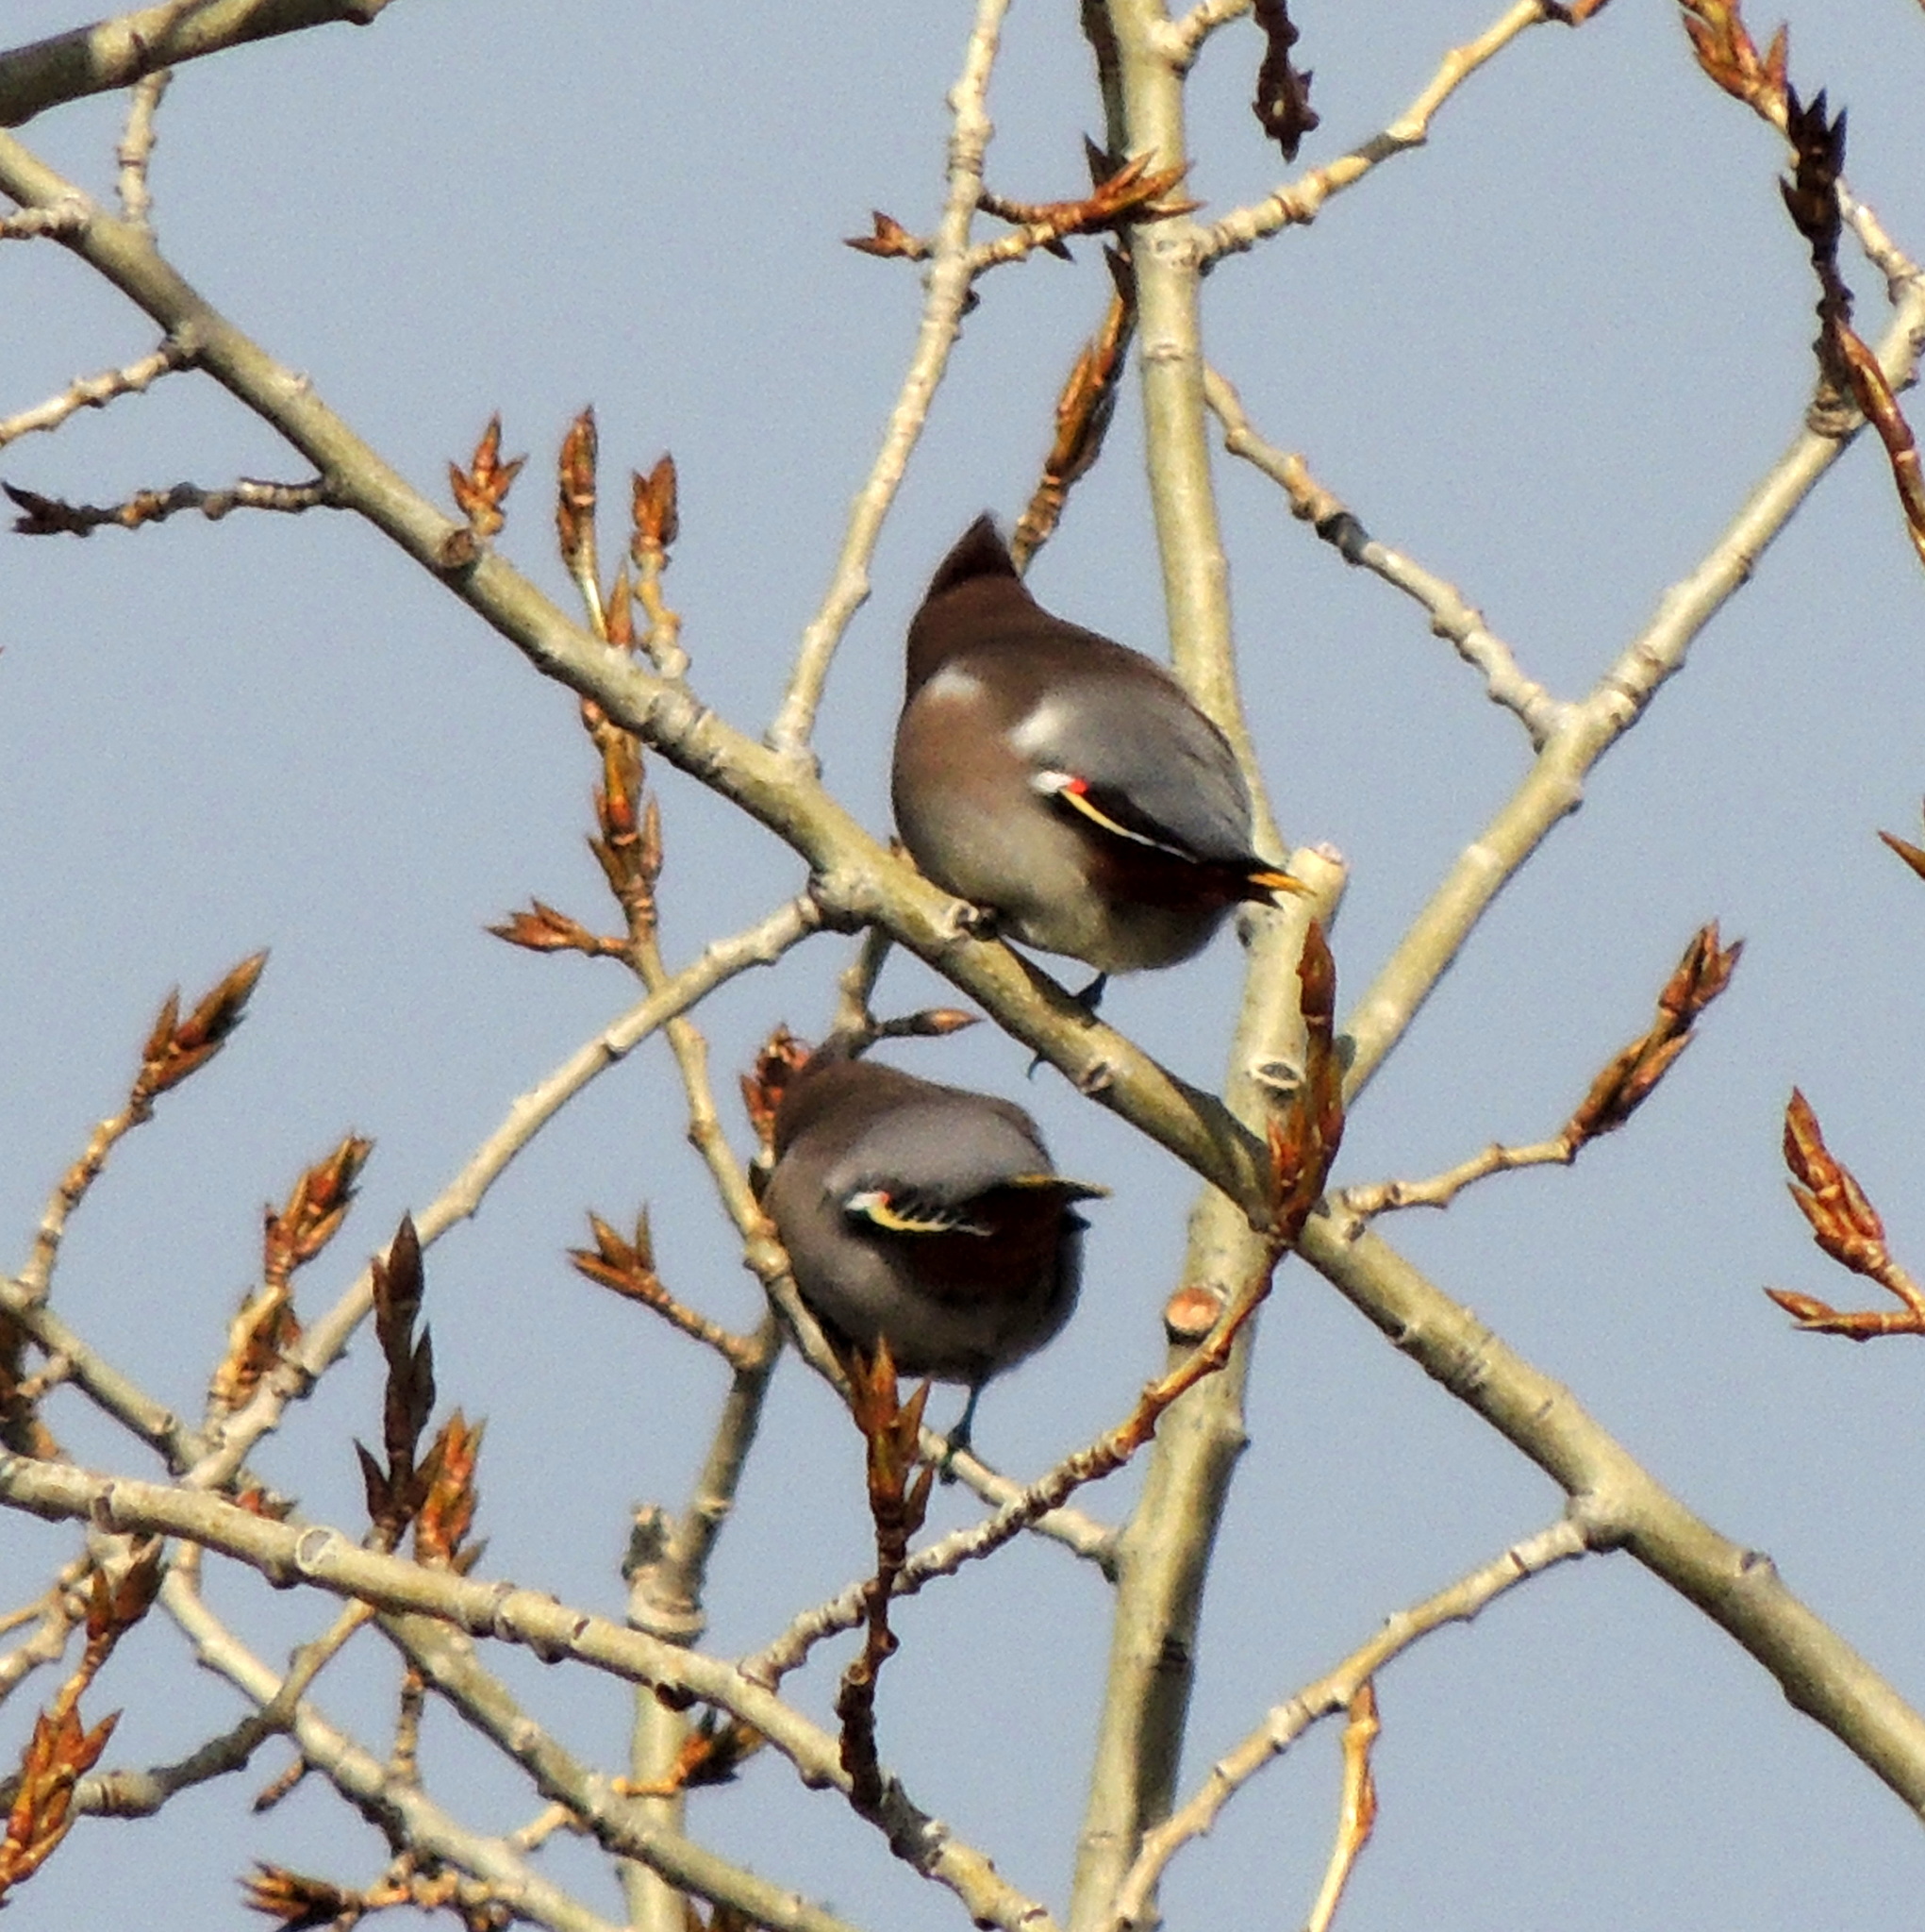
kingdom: Animalia
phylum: Chordata
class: Aves
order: Passeriformes
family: Bombycillidae
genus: Bombycilla
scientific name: Bombycilla garrulus
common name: Bohemian waxwing
